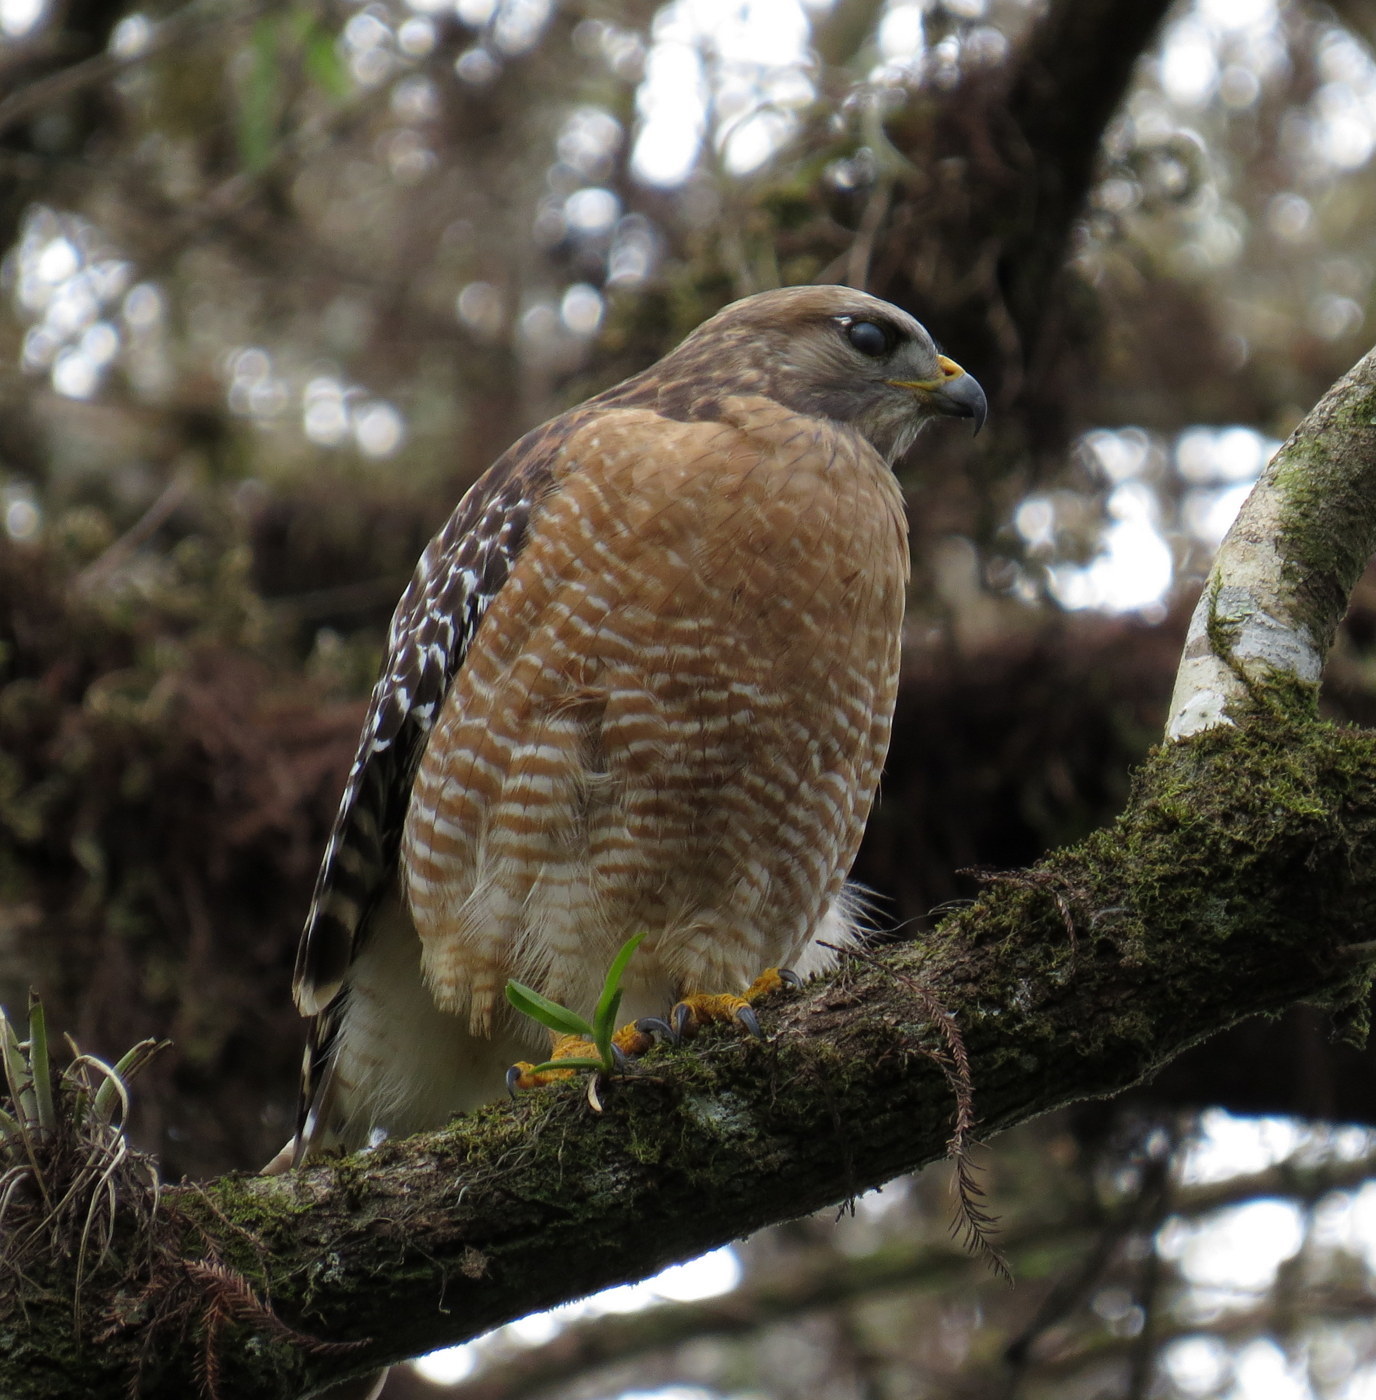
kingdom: Animalia
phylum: Chordata
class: Aves
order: Accipitriformes
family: Accipitridae
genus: Buteo
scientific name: Buteo lineatus
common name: Red-shouldered hawk
